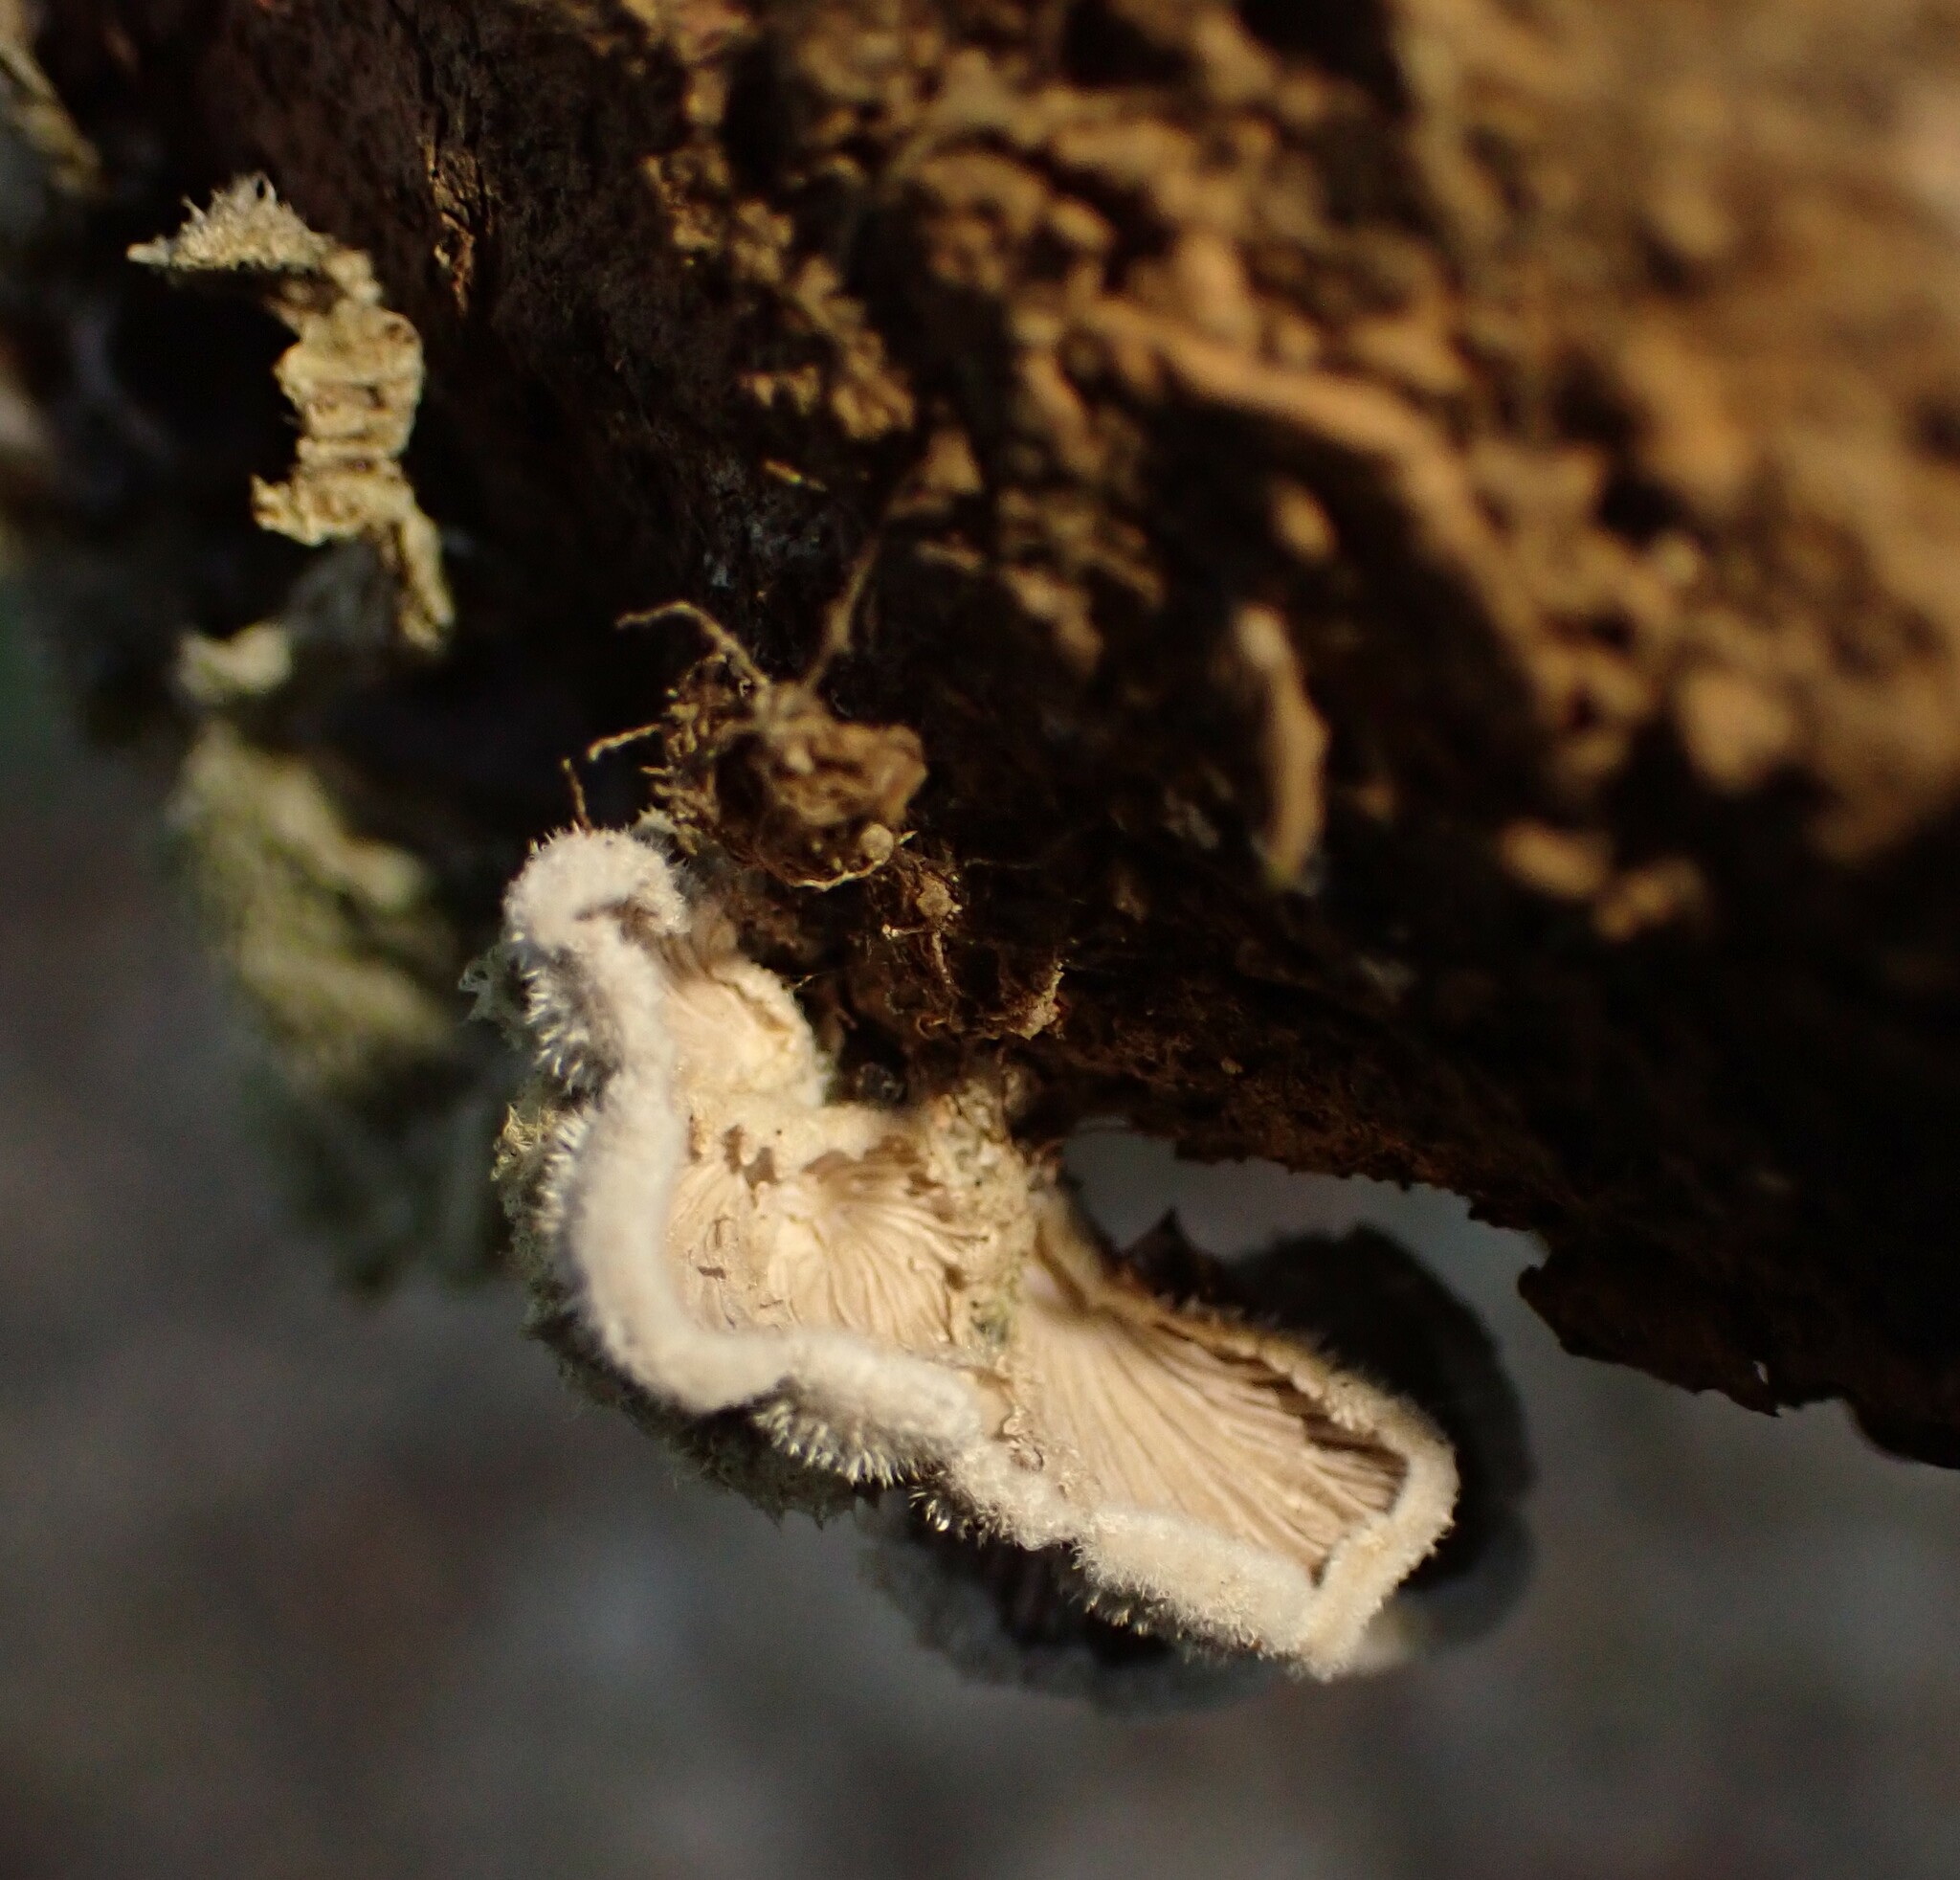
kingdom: Fungi
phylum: Basidiomycota
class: Agaricomycetes
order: Agaricales
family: Schizophyllaceae
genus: Schizophyllum
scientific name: Schizophyllum commune
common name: Common porecrust
